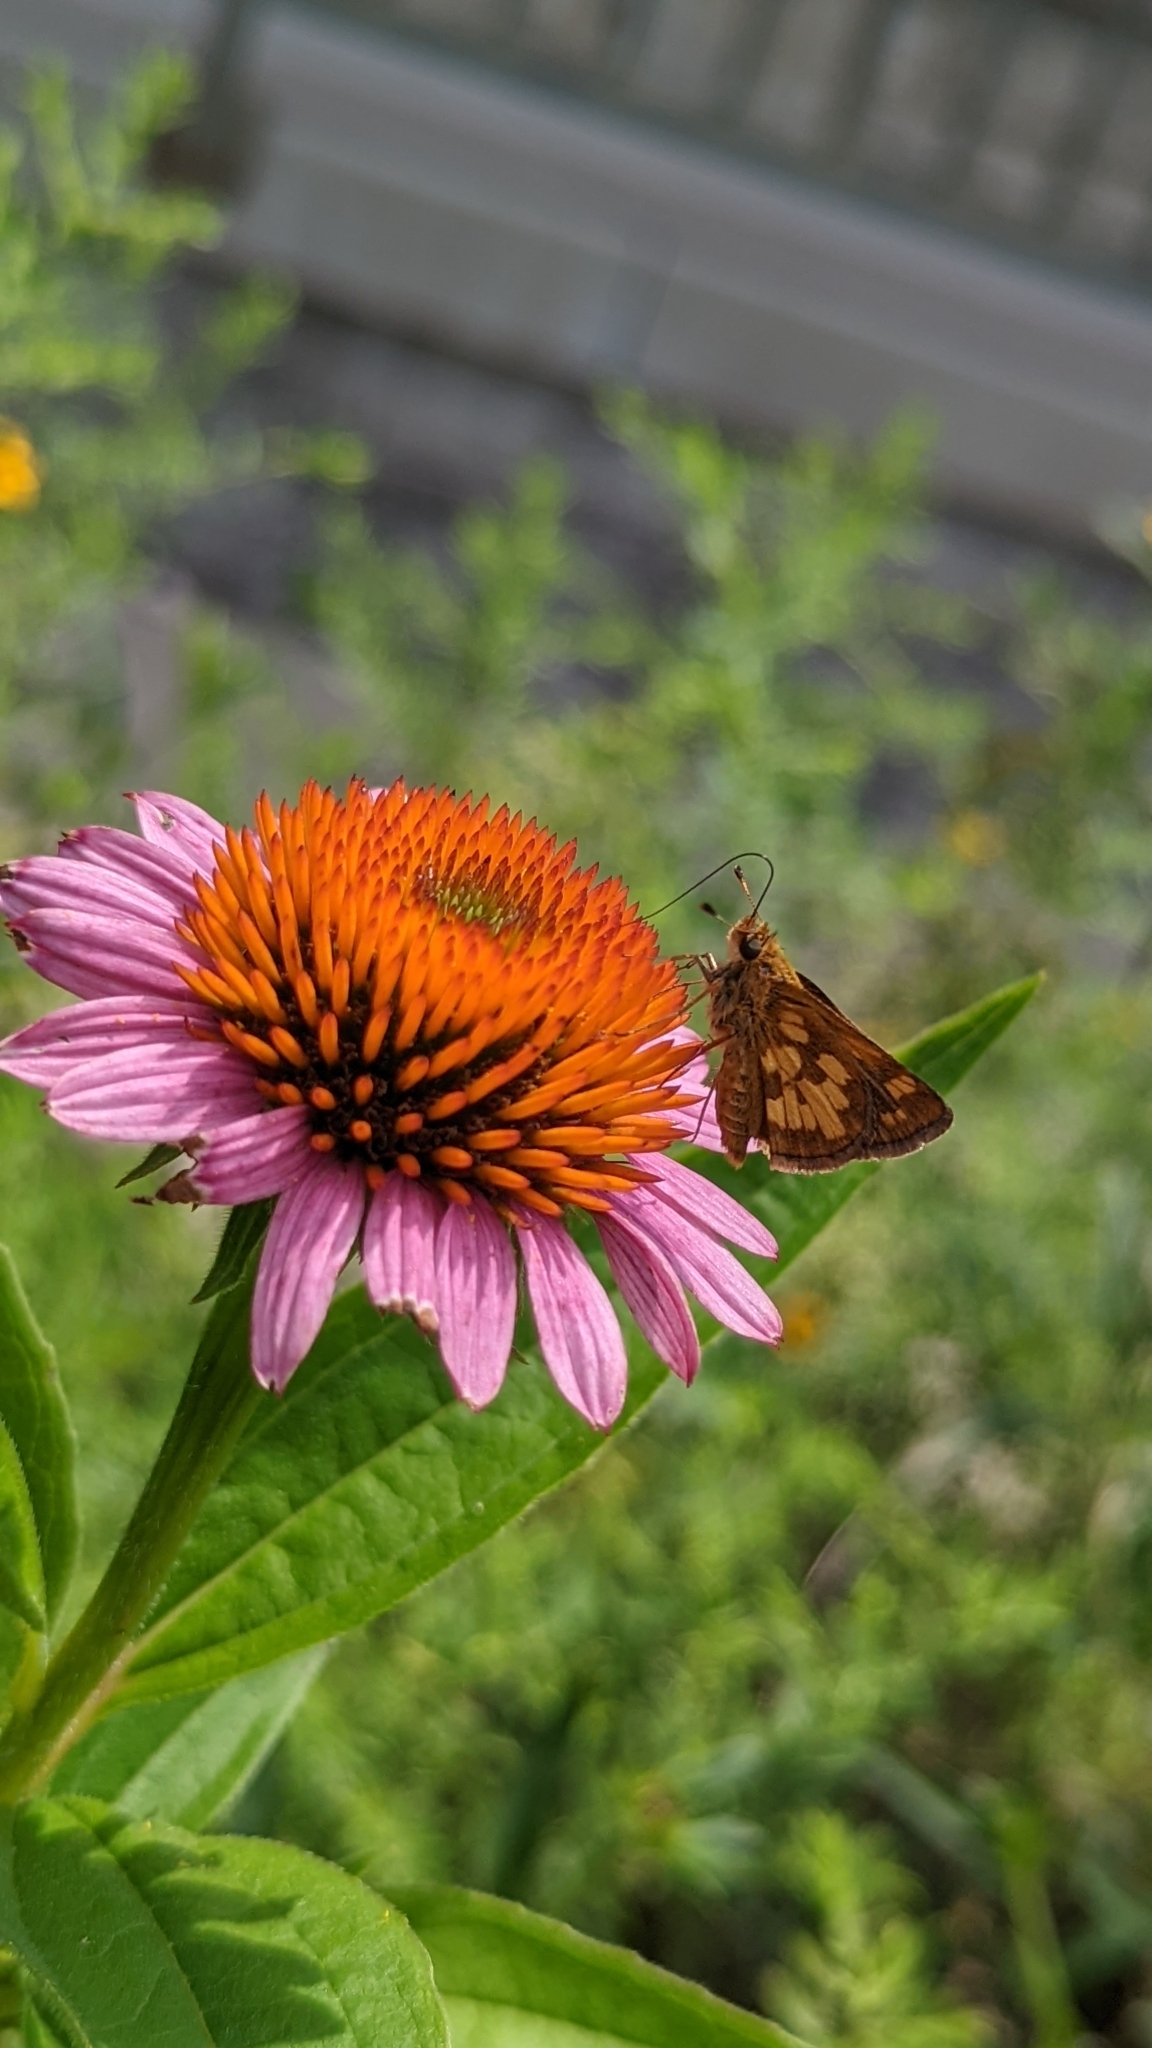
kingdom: Animalia
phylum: Arthropoda
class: Insecta
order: Lepidoptera
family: Hesperiidae
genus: Polites
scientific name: Polites coras
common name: Peck's skipper
